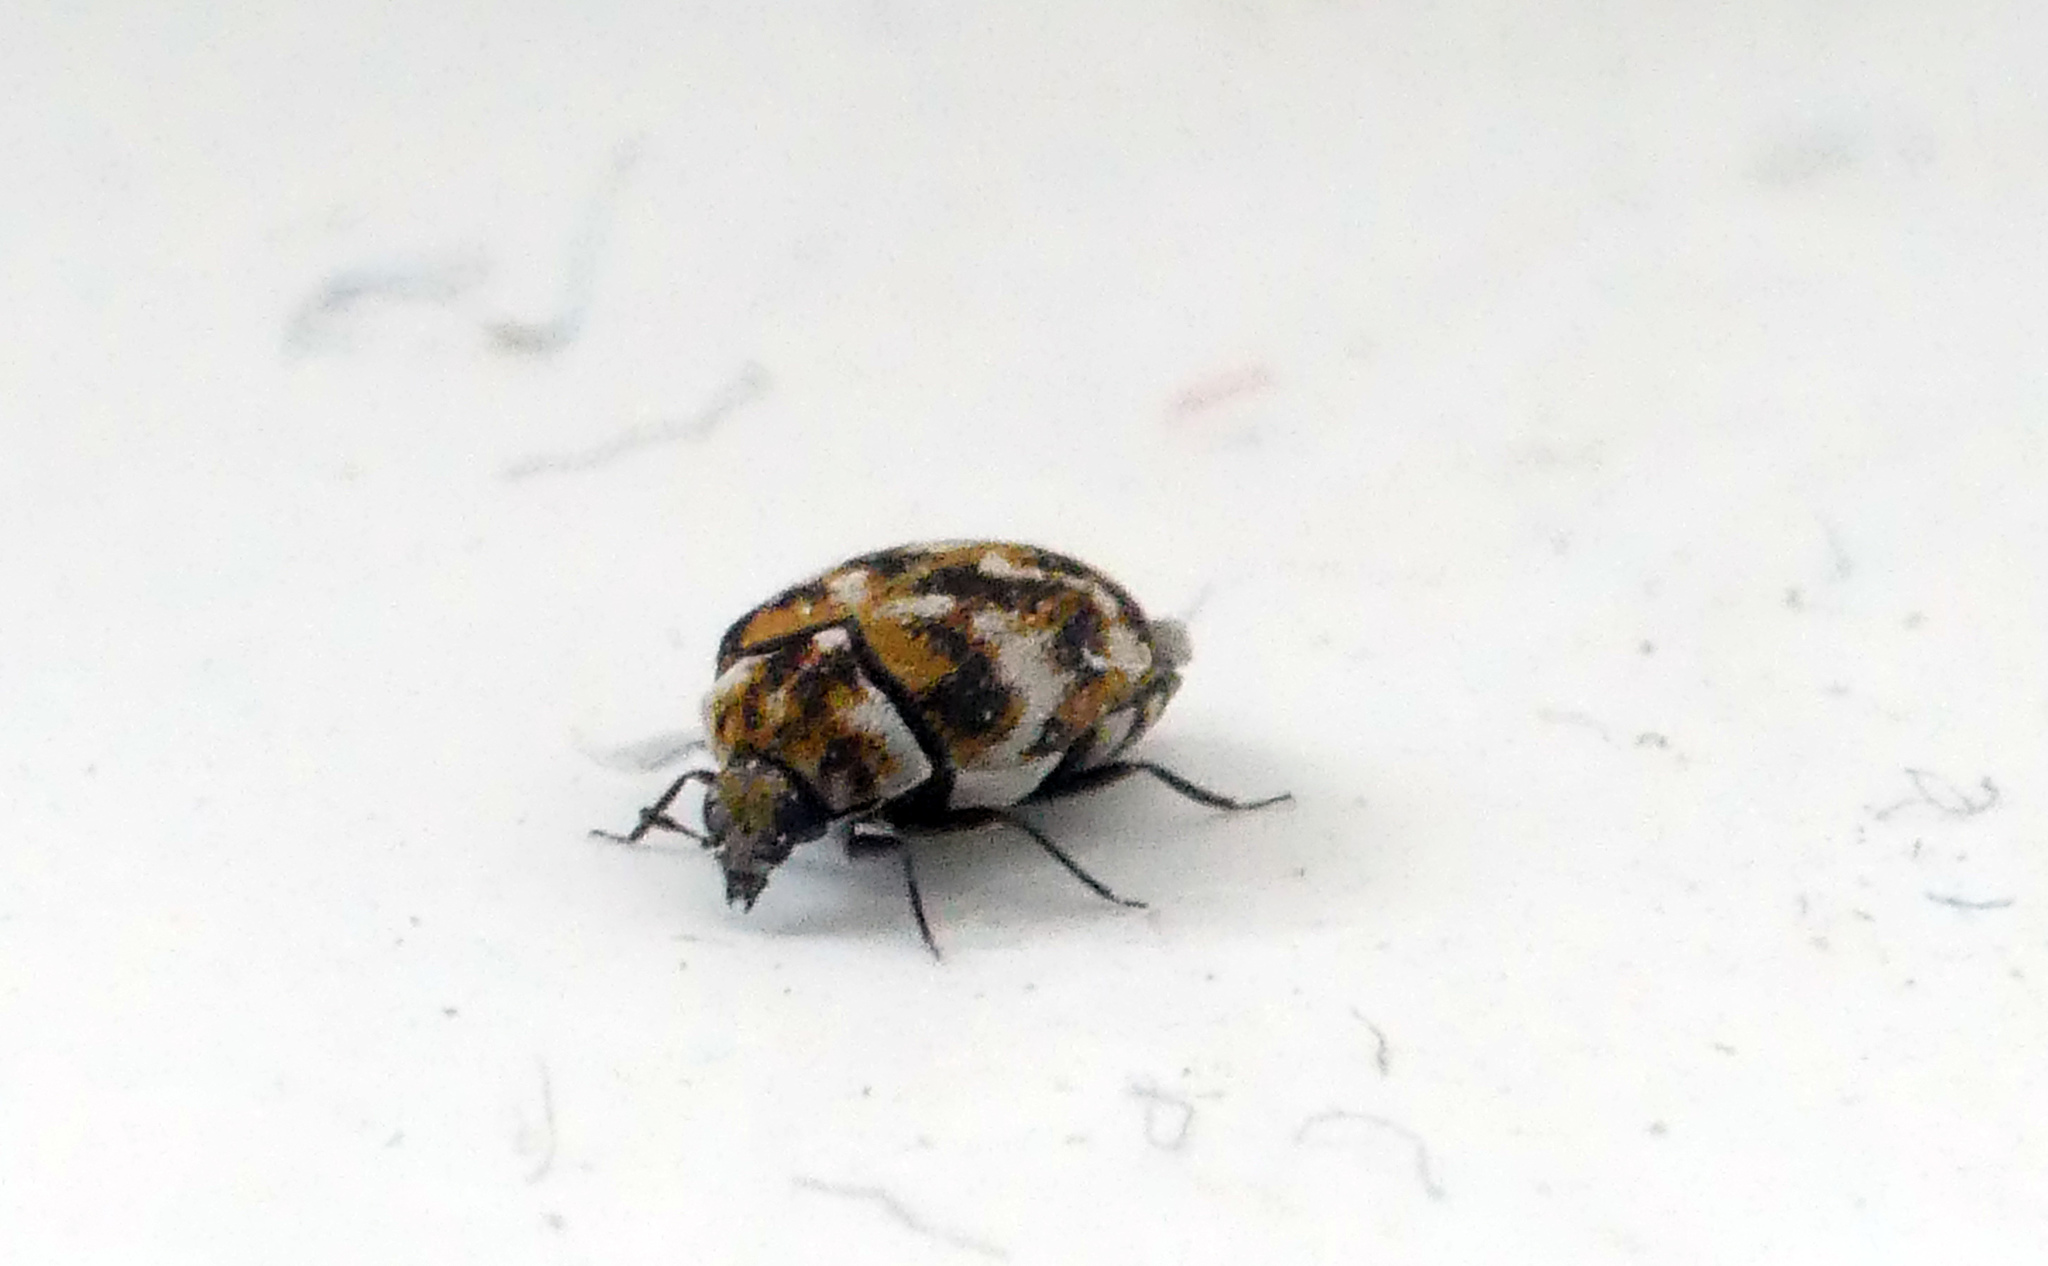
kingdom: Animalia
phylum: Arthropoda
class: Insecta
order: Coleoptera
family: Dermestidae
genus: Anthrenus
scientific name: Anthrenus verbasci
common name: Varied carpet beetle
